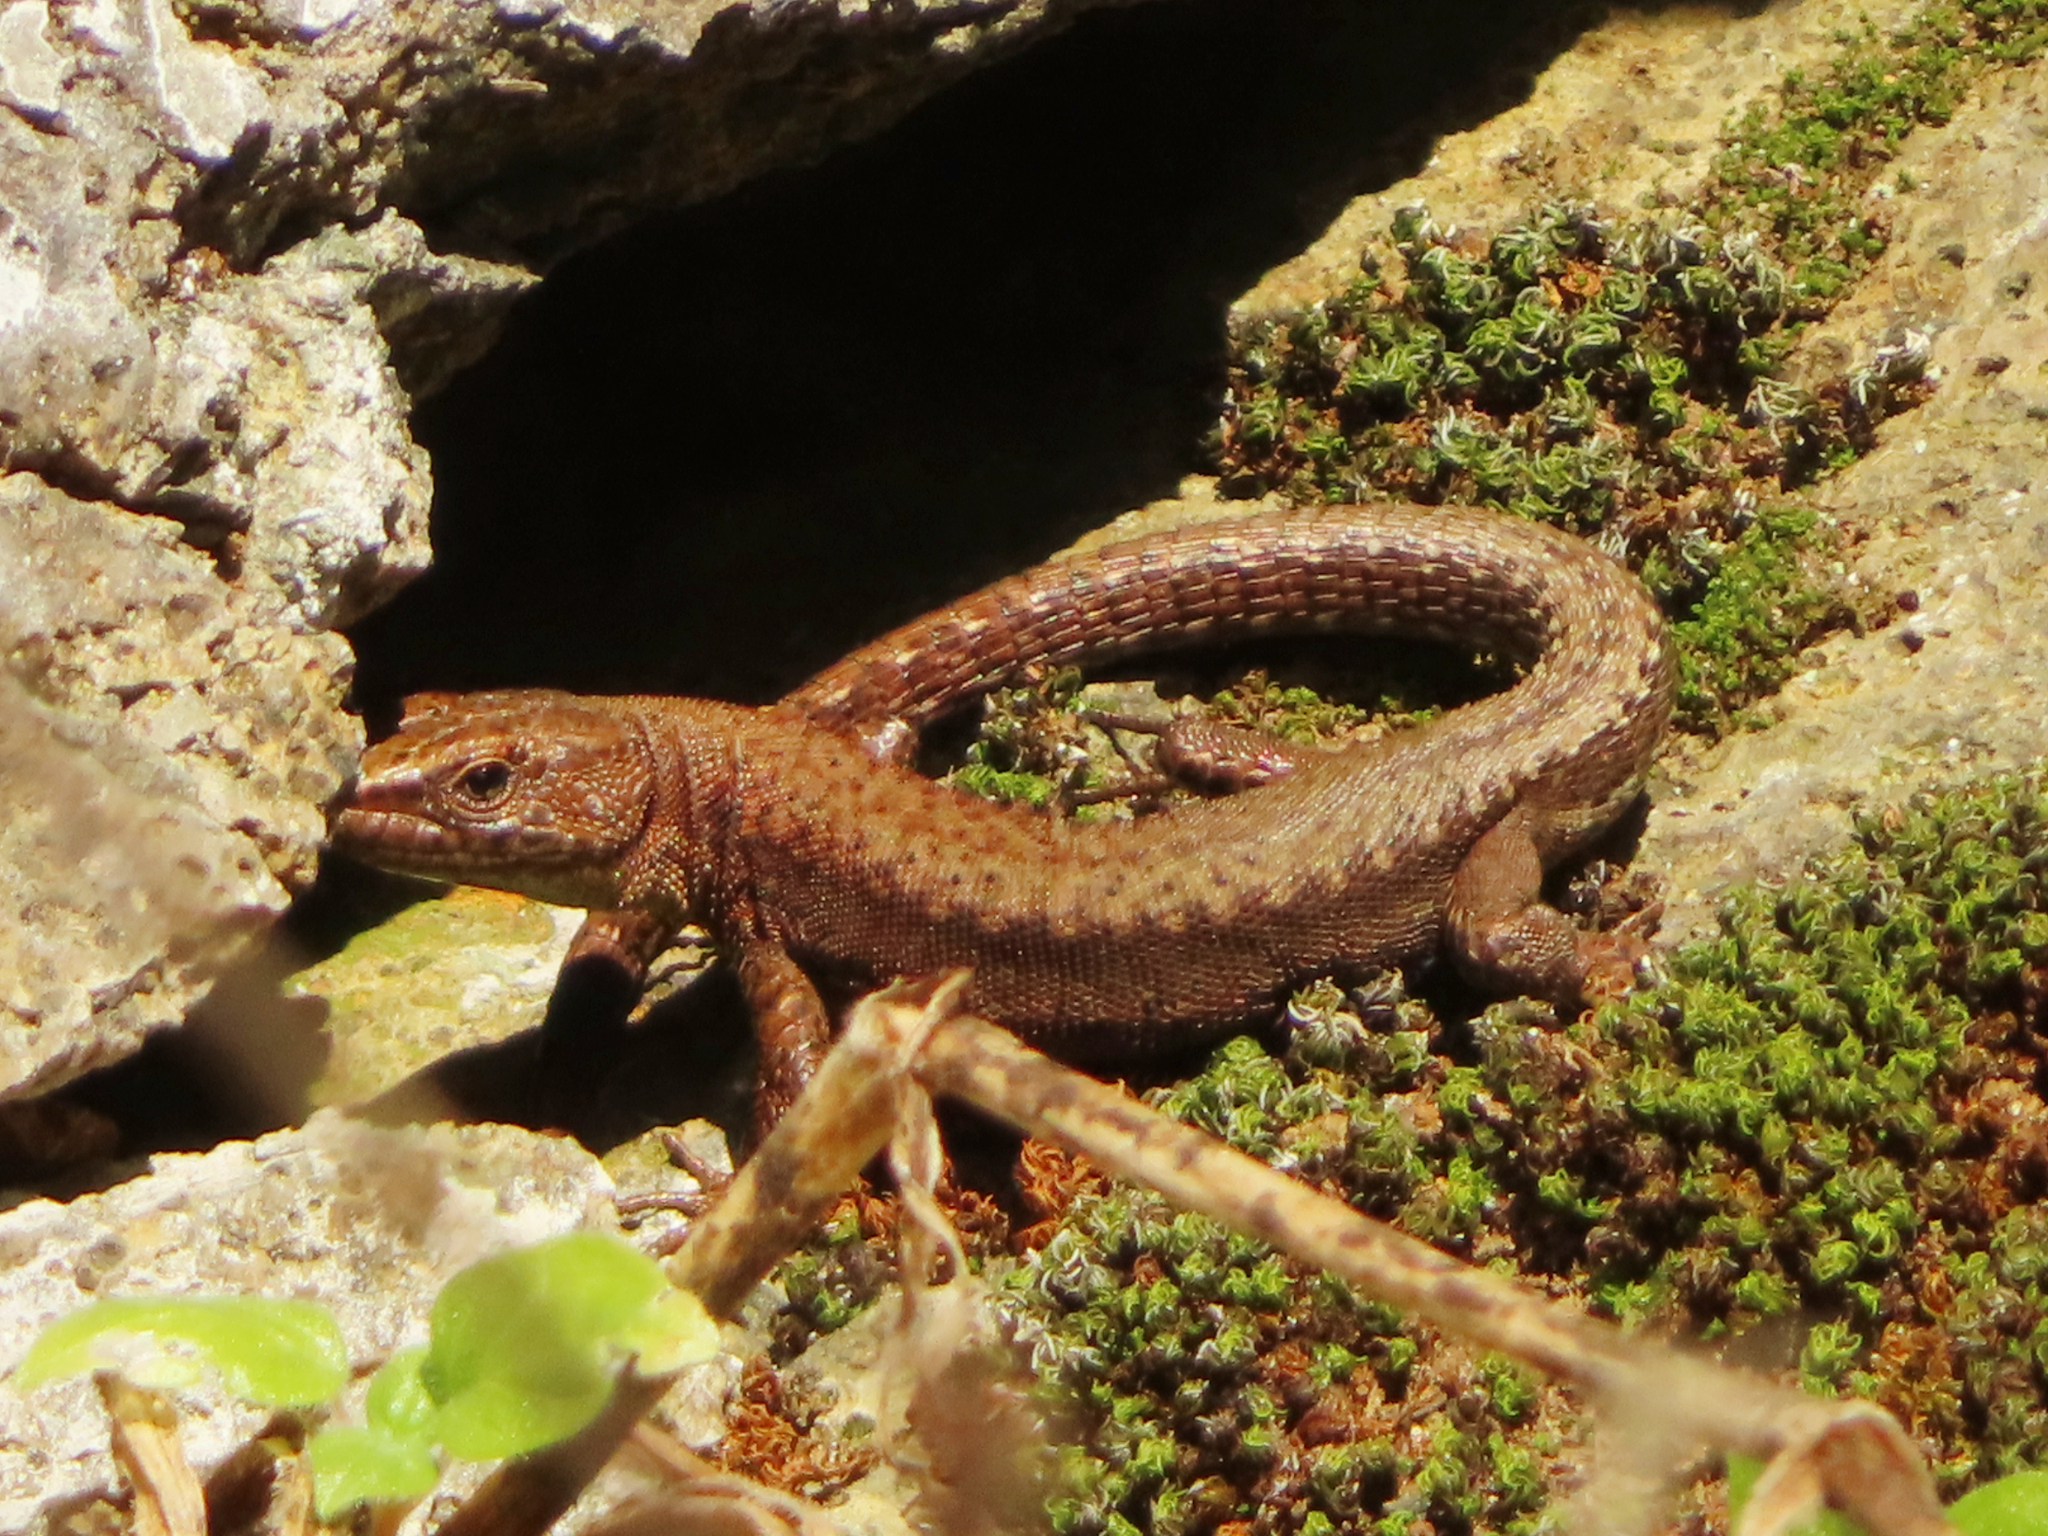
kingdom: Animalia
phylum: Chordata
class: Squamata
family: Lacertidae
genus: Darevskia
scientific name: Darevskia derjugini
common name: Derjugin's lizard
